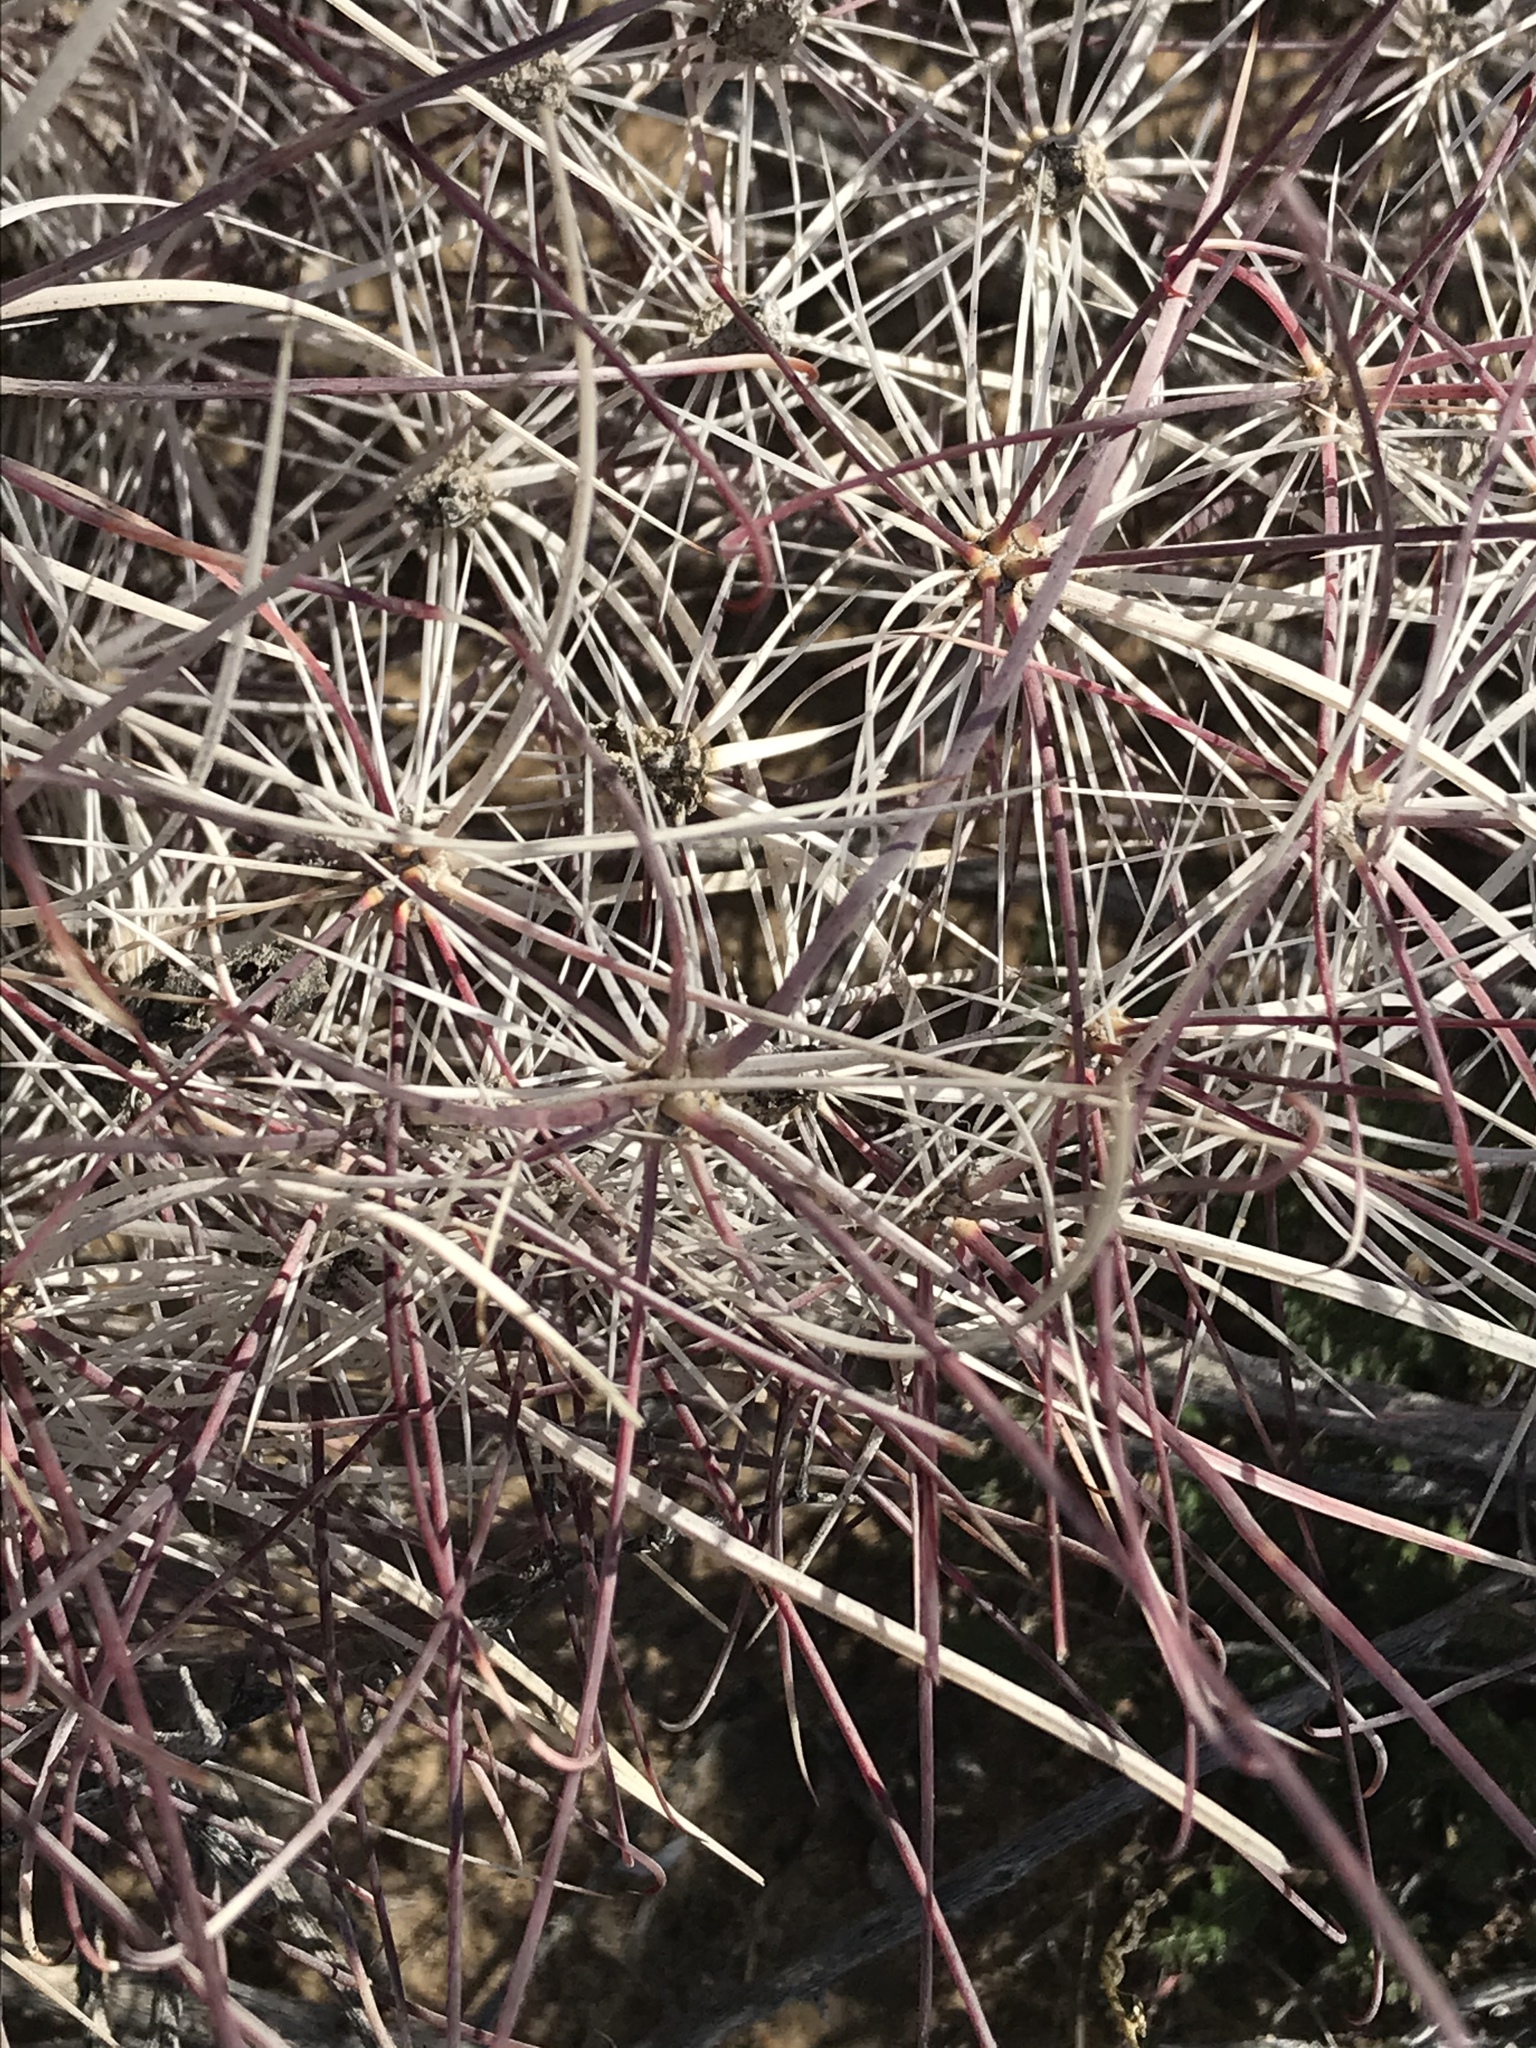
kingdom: Plantae
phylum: Tracheophyta
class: Magnoliopsida
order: Caryophyllales
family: Cactaceae
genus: Sclerocactus
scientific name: Sclerocactus polyancistrus
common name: Mohave fishhook cactus
